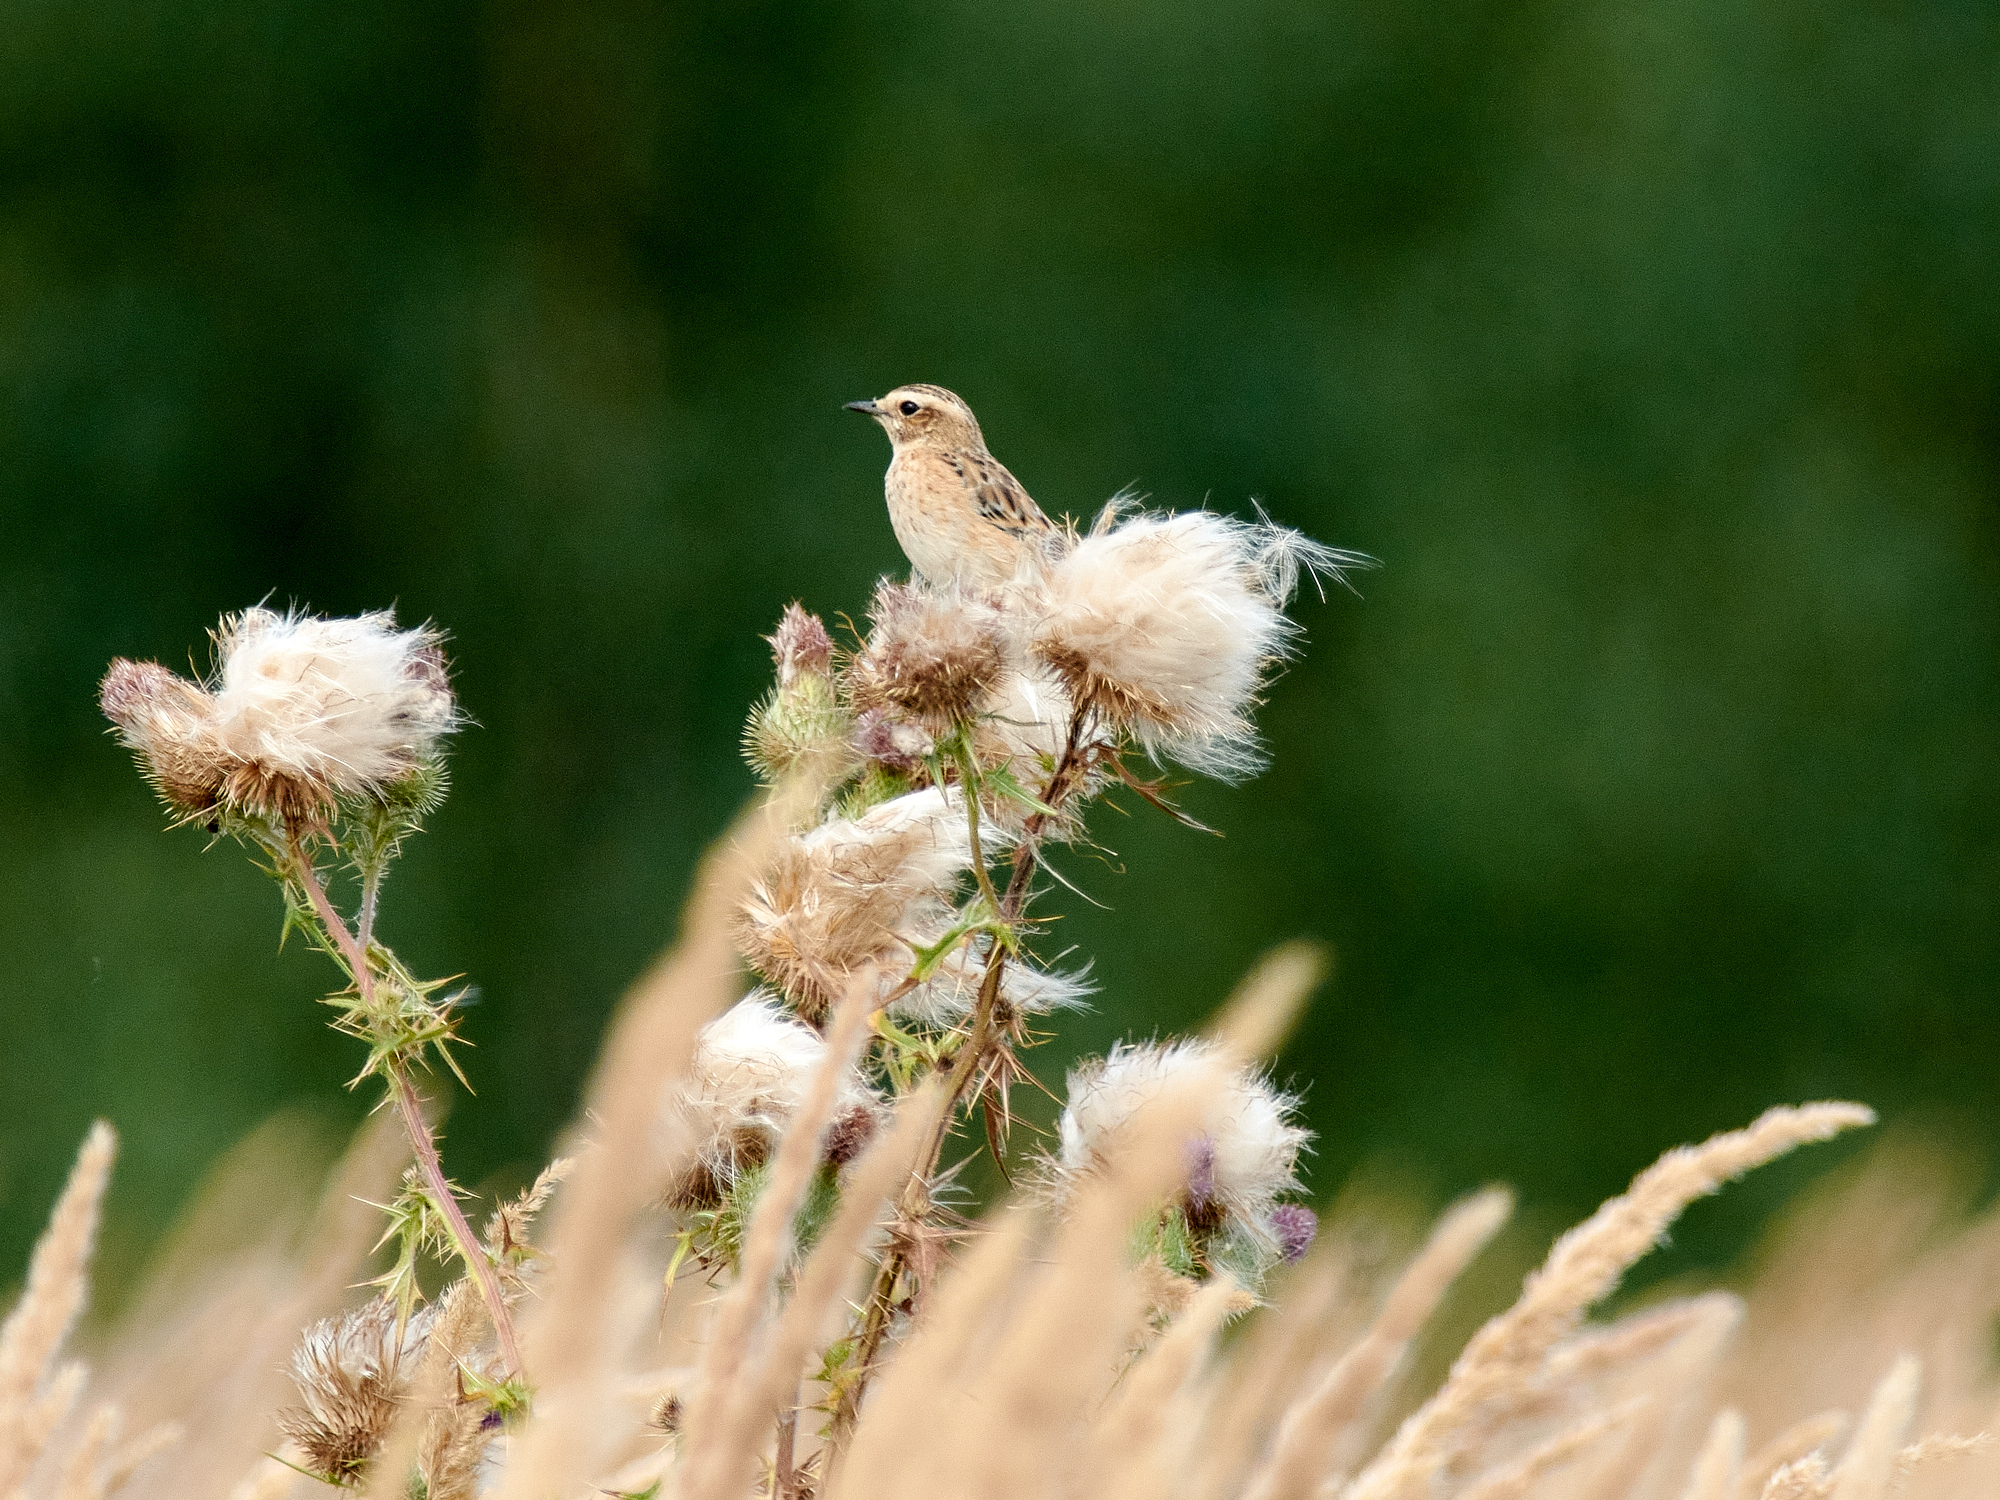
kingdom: Animalia
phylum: Chordata
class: Aves
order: Passeriformes
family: Muscicapidae
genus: Saxicola
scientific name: Saxicola rubetra
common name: Whinchat
